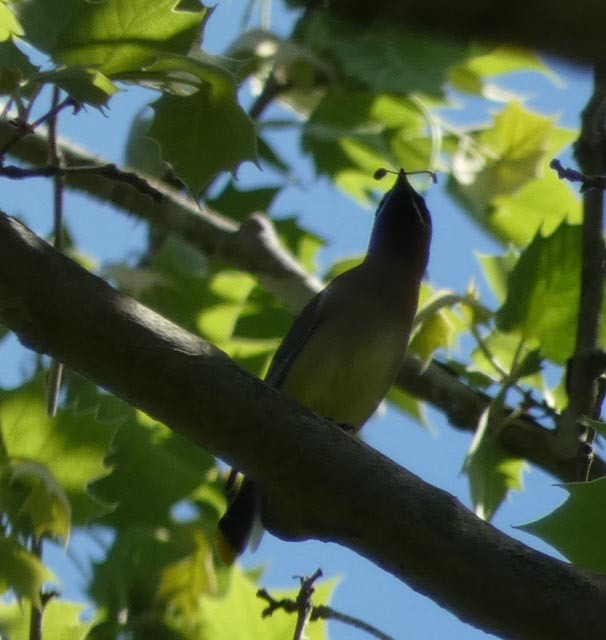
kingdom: Animalia
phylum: Chordata
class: Aves
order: Passeriformes
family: Bombycillidae
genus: Bombycilla
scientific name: Bombycilla cedrorum
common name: Cedar waxwing
